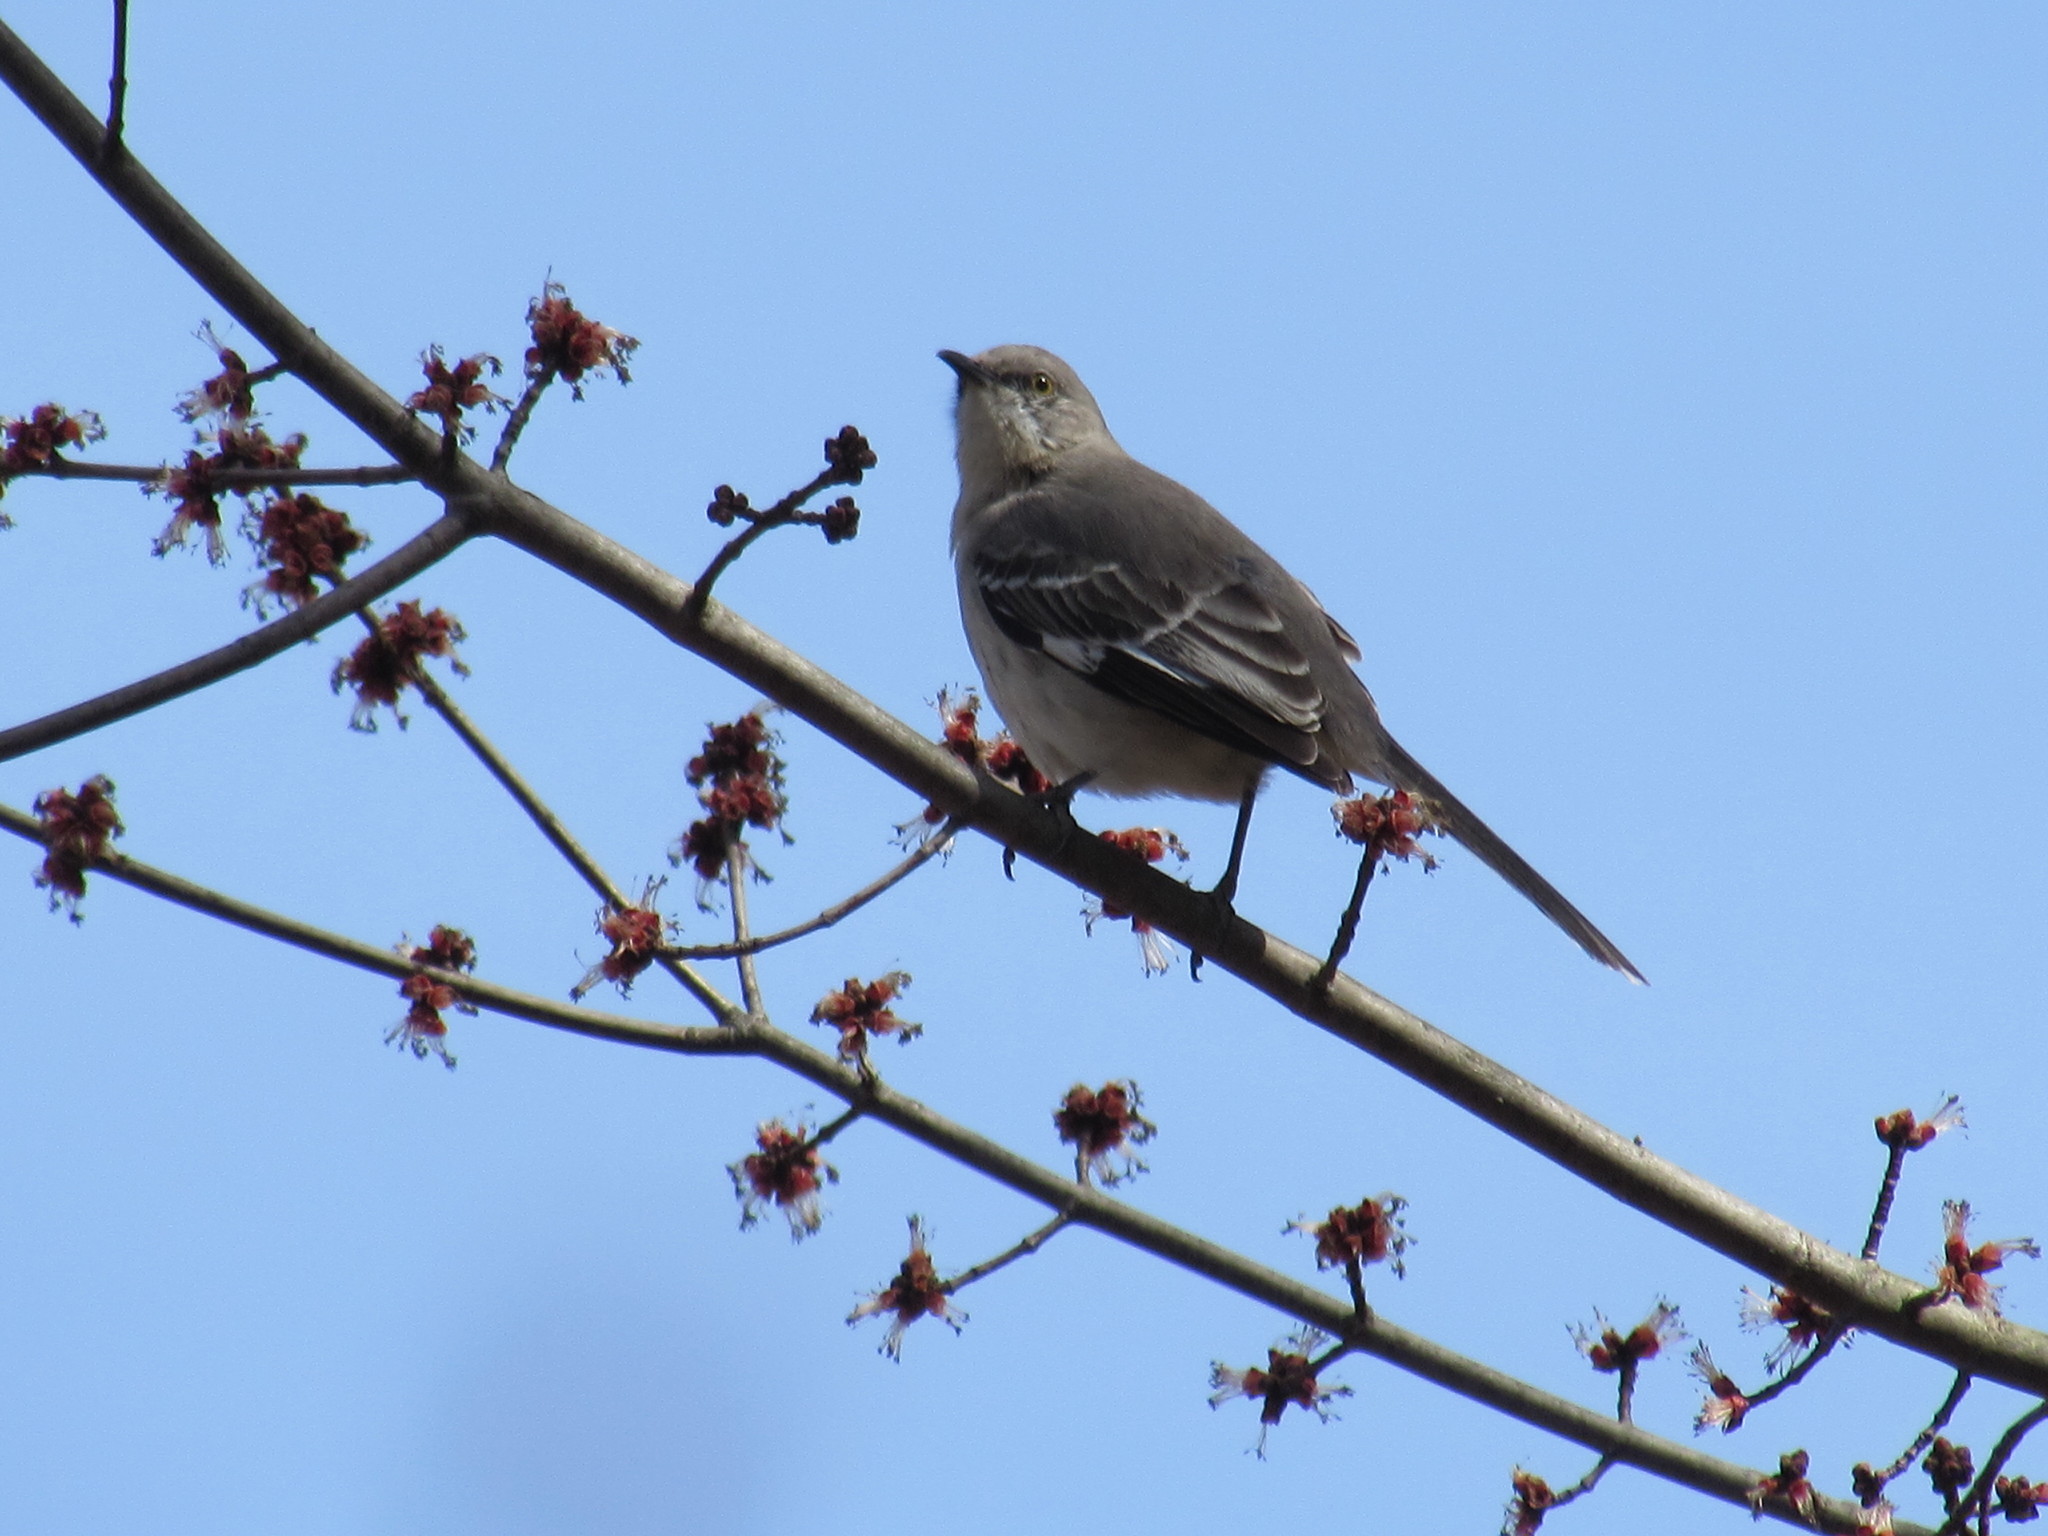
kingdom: Animalia
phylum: Chordata
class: Aves
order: Passeriformes
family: Mimidae
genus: Mimus
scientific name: Mimus polyglottos
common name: Northern mockingbird
